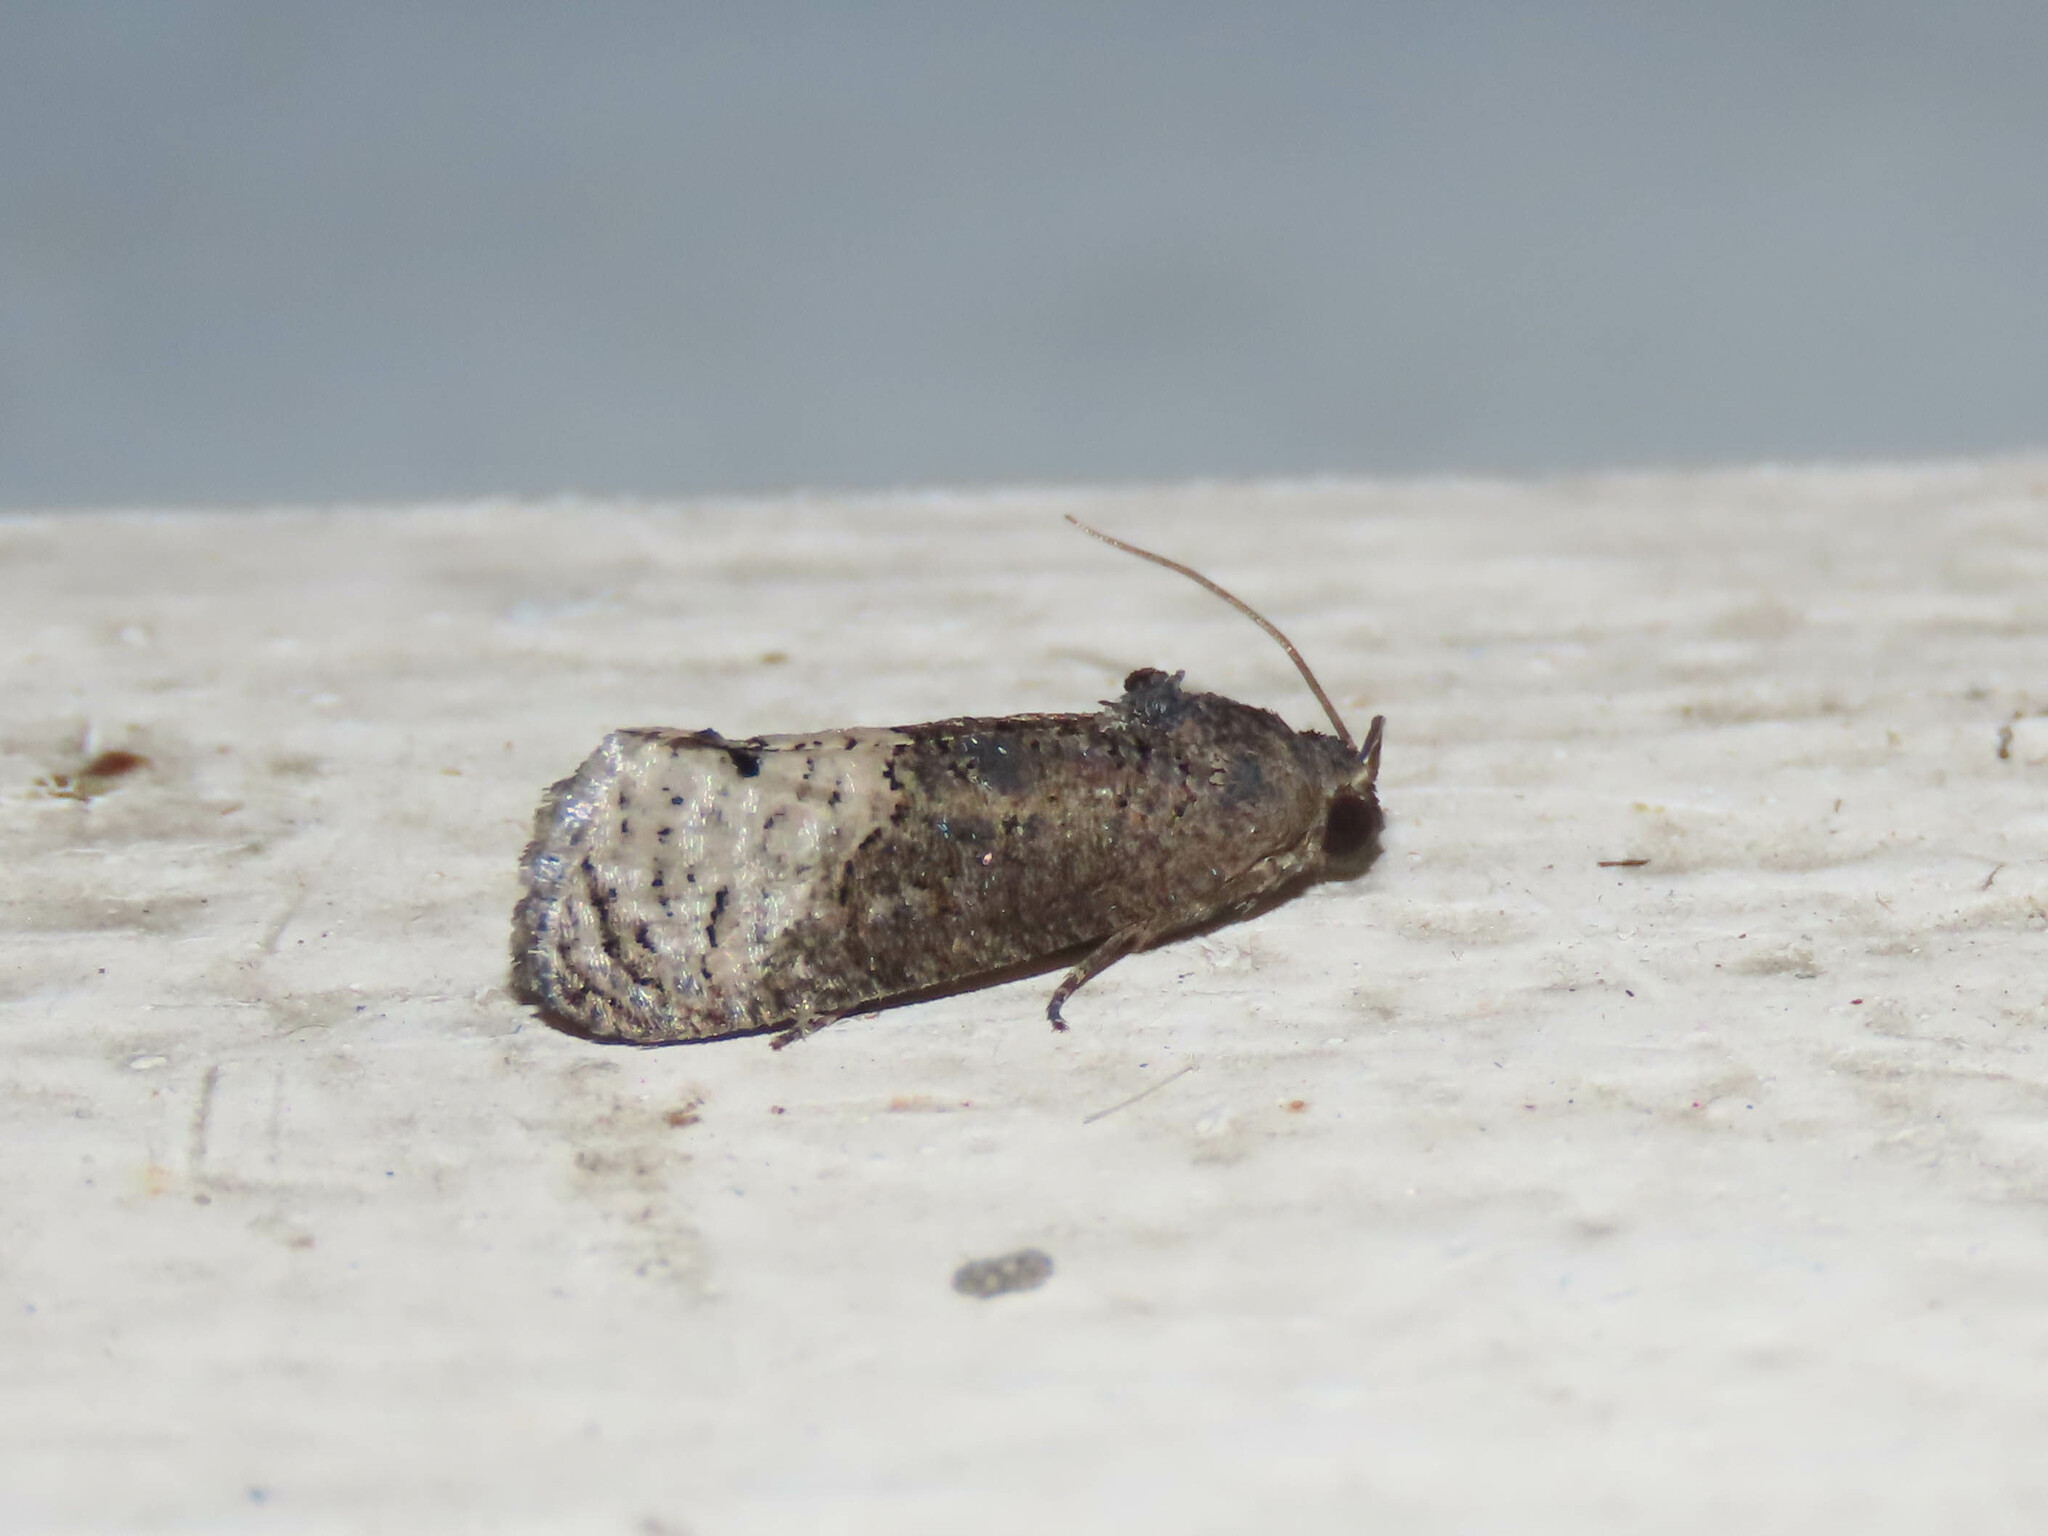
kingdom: Animalia
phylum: Arthropoda
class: Insecta
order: Lepidoptera
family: Tortricidae
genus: Ecdytolopha
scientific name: Ecdytolopha insiticiana
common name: Locust twig borer moth
